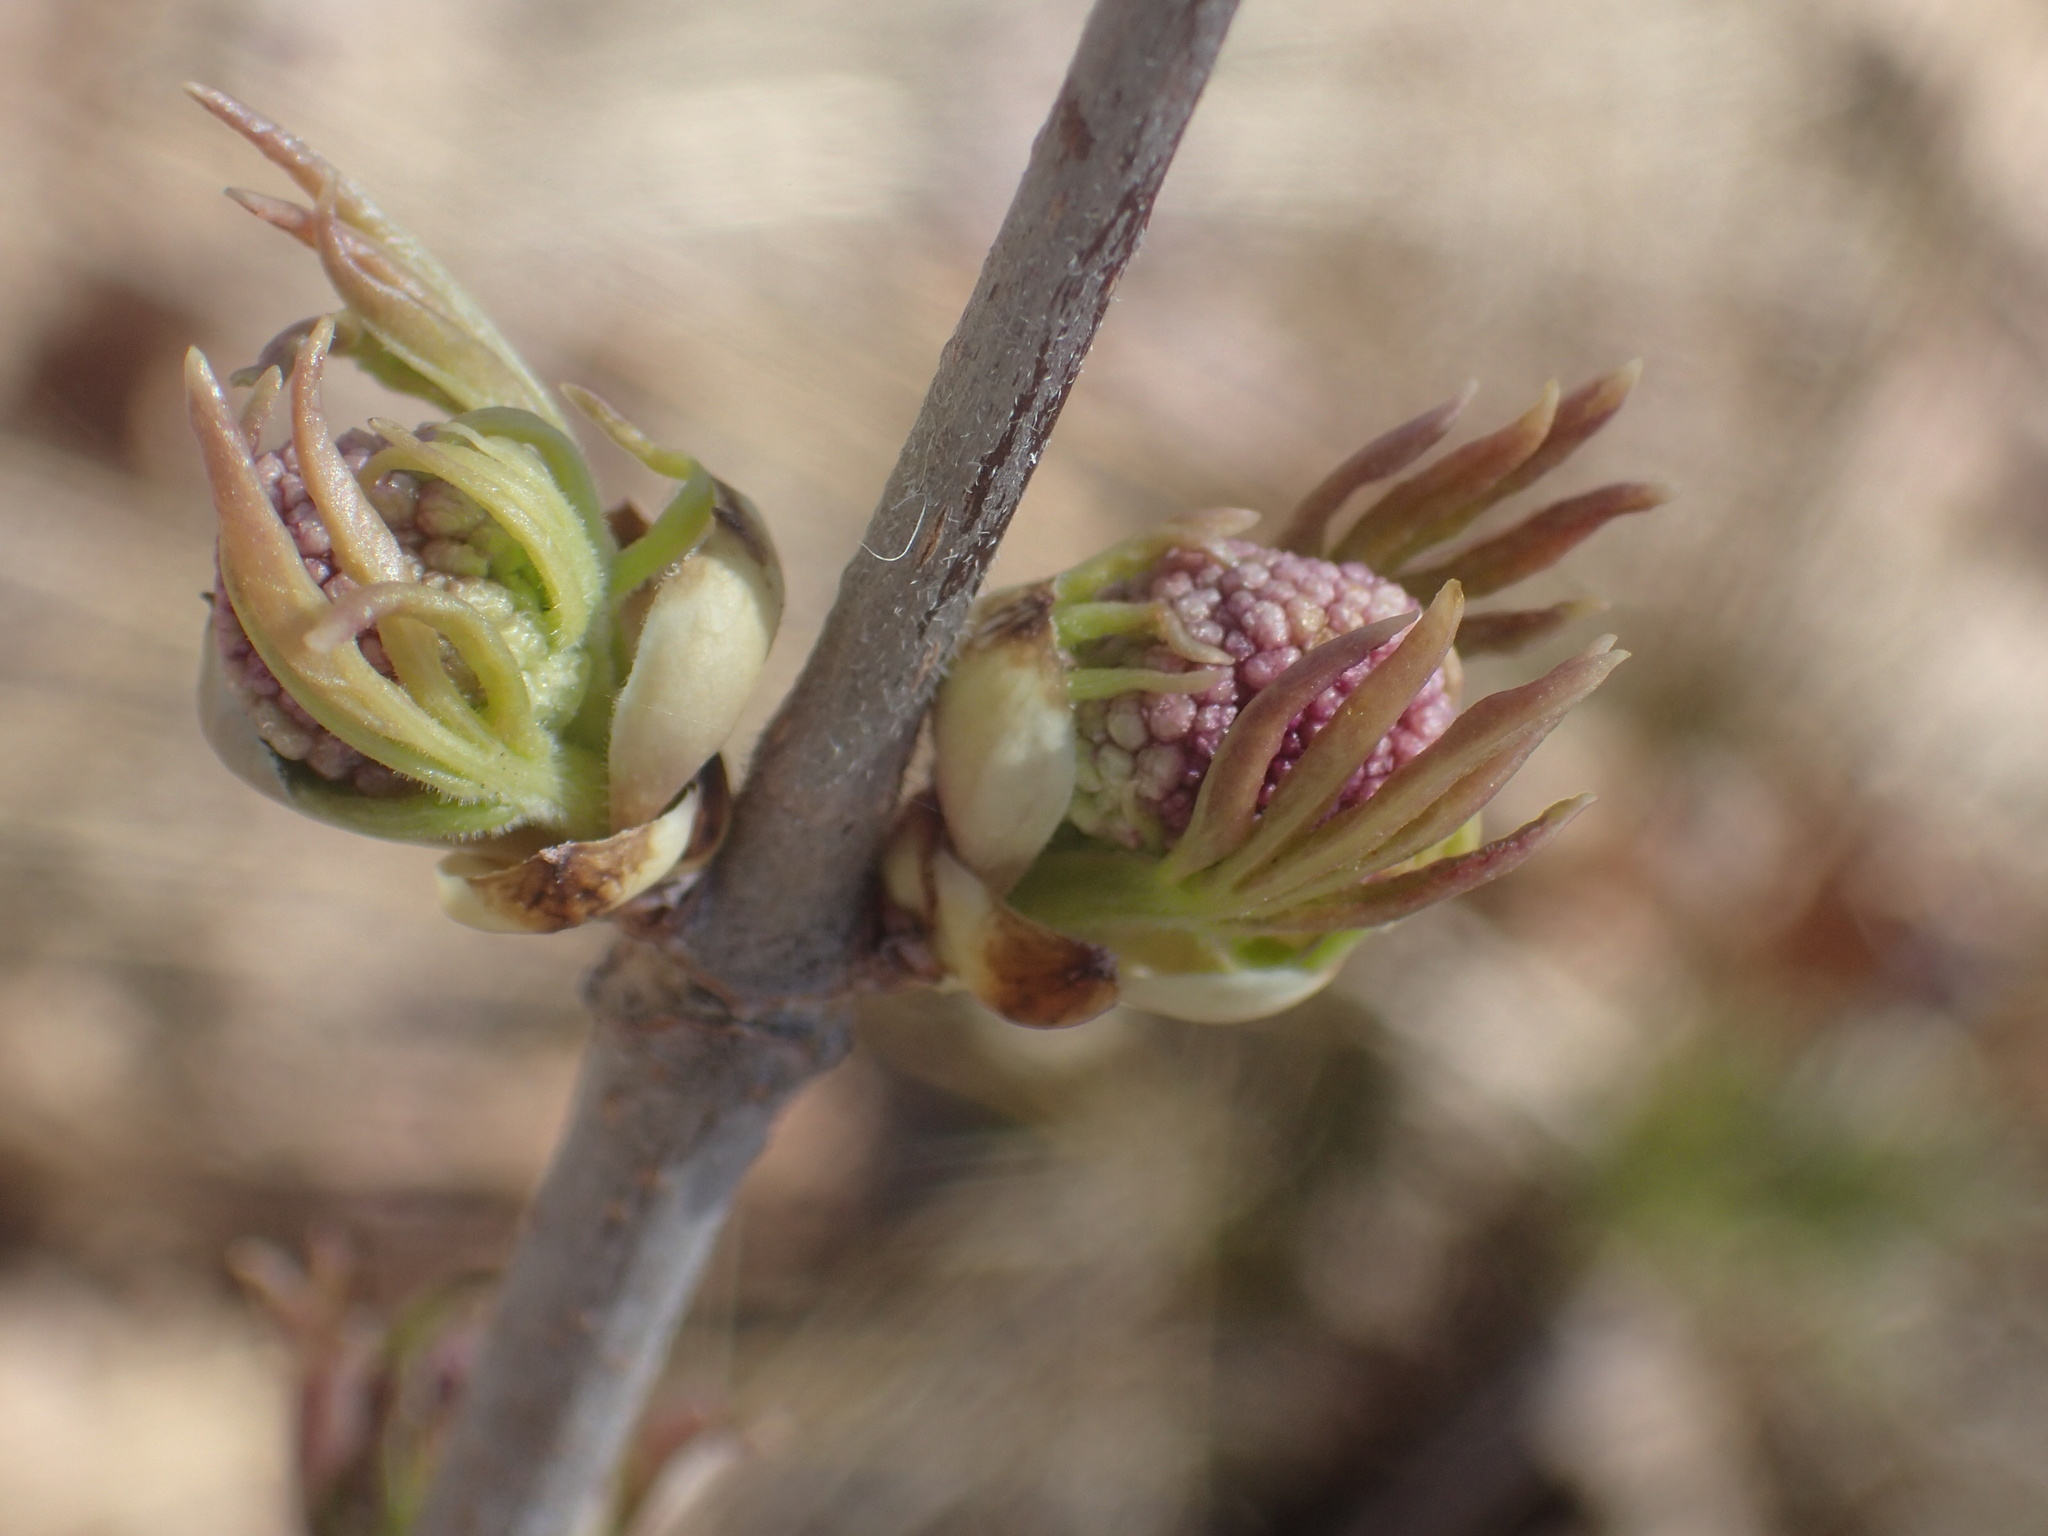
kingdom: Plantae
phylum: Tracheophyta
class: Magnoliopsida
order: Dipsacales
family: Viburnaceae
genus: Sambucus
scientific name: Sambucus racemosa
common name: Red-berried elder
